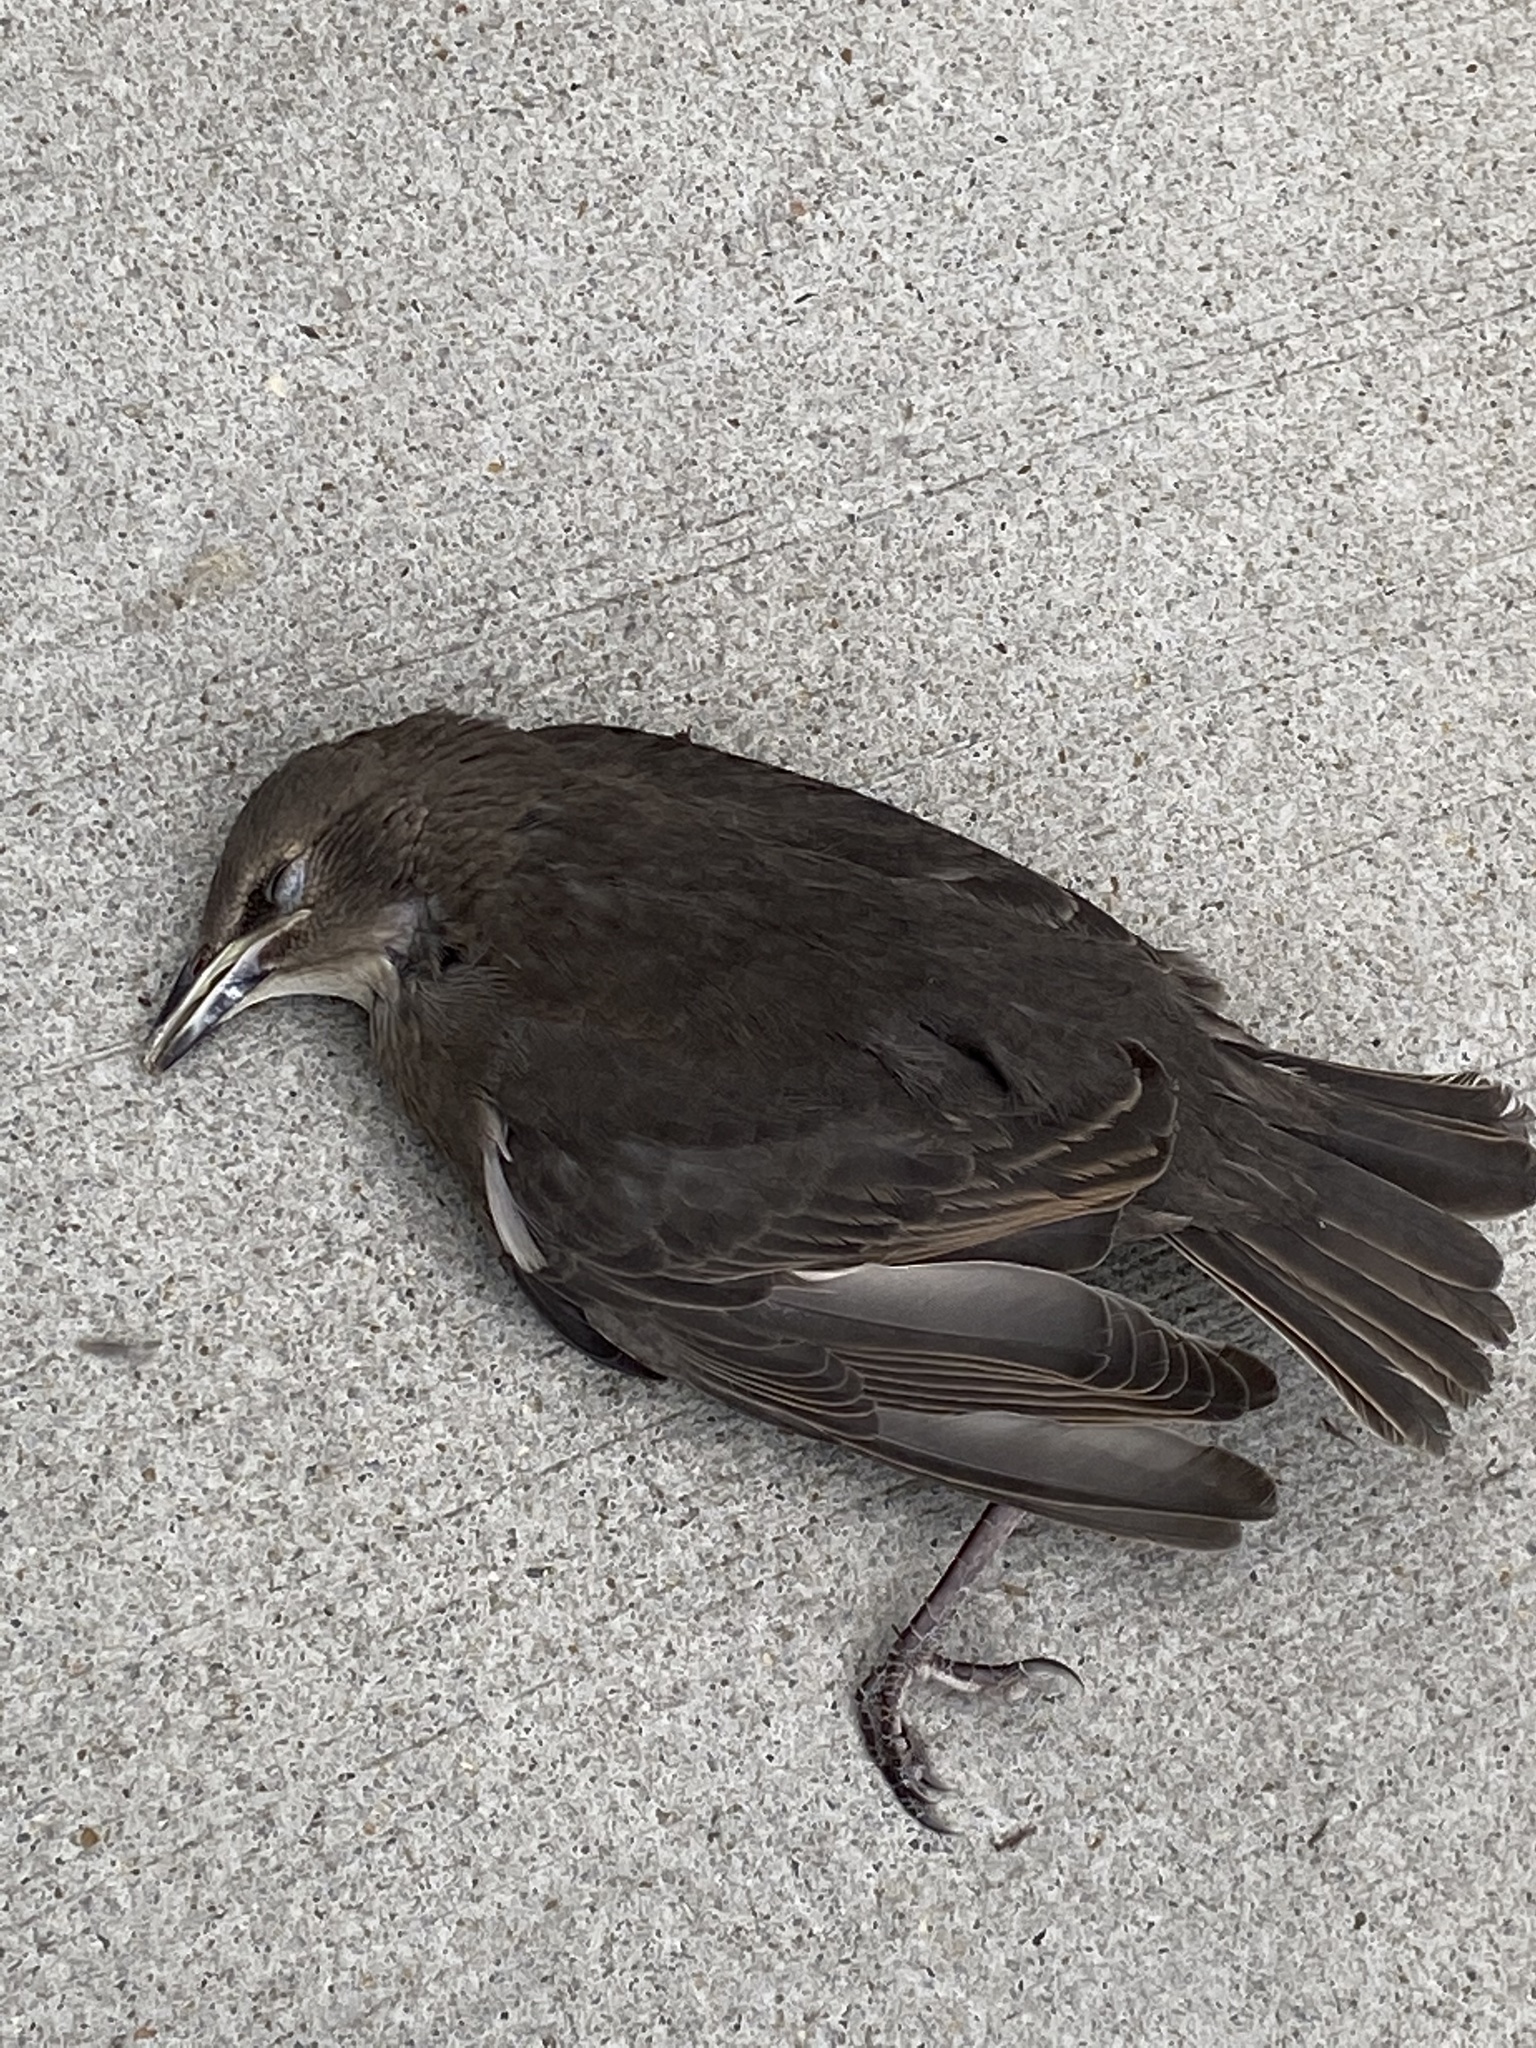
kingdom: Animalia
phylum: Chordata
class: Aves
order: Passeriformes
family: Sturnidae
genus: Sturnus
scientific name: Sturnus vulgaris
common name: Common starling
